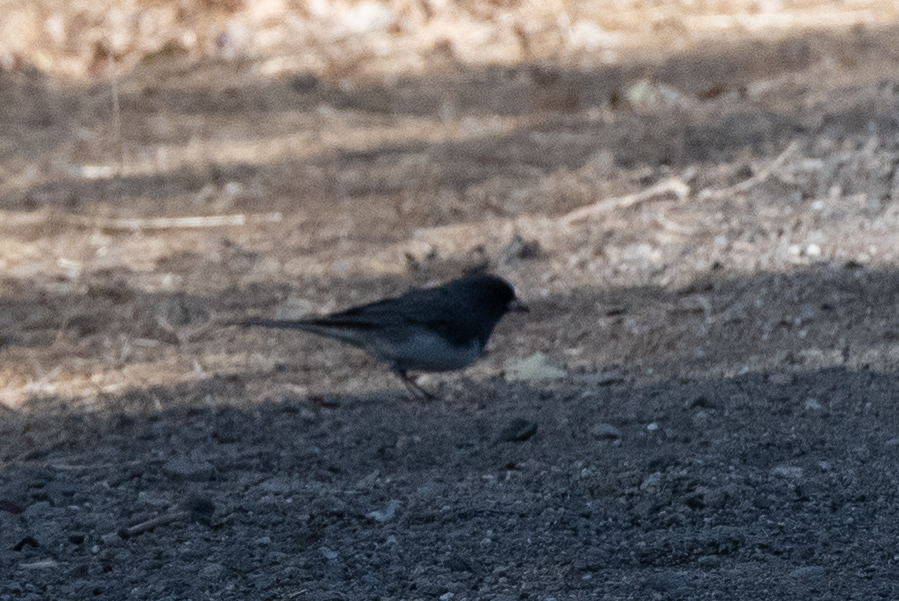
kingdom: Animalia
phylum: Chordata
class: Aves
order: Passeriformes
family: Passerellidae
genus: Junco
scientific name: Junco hyemalis
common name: Dark-eyed junco
